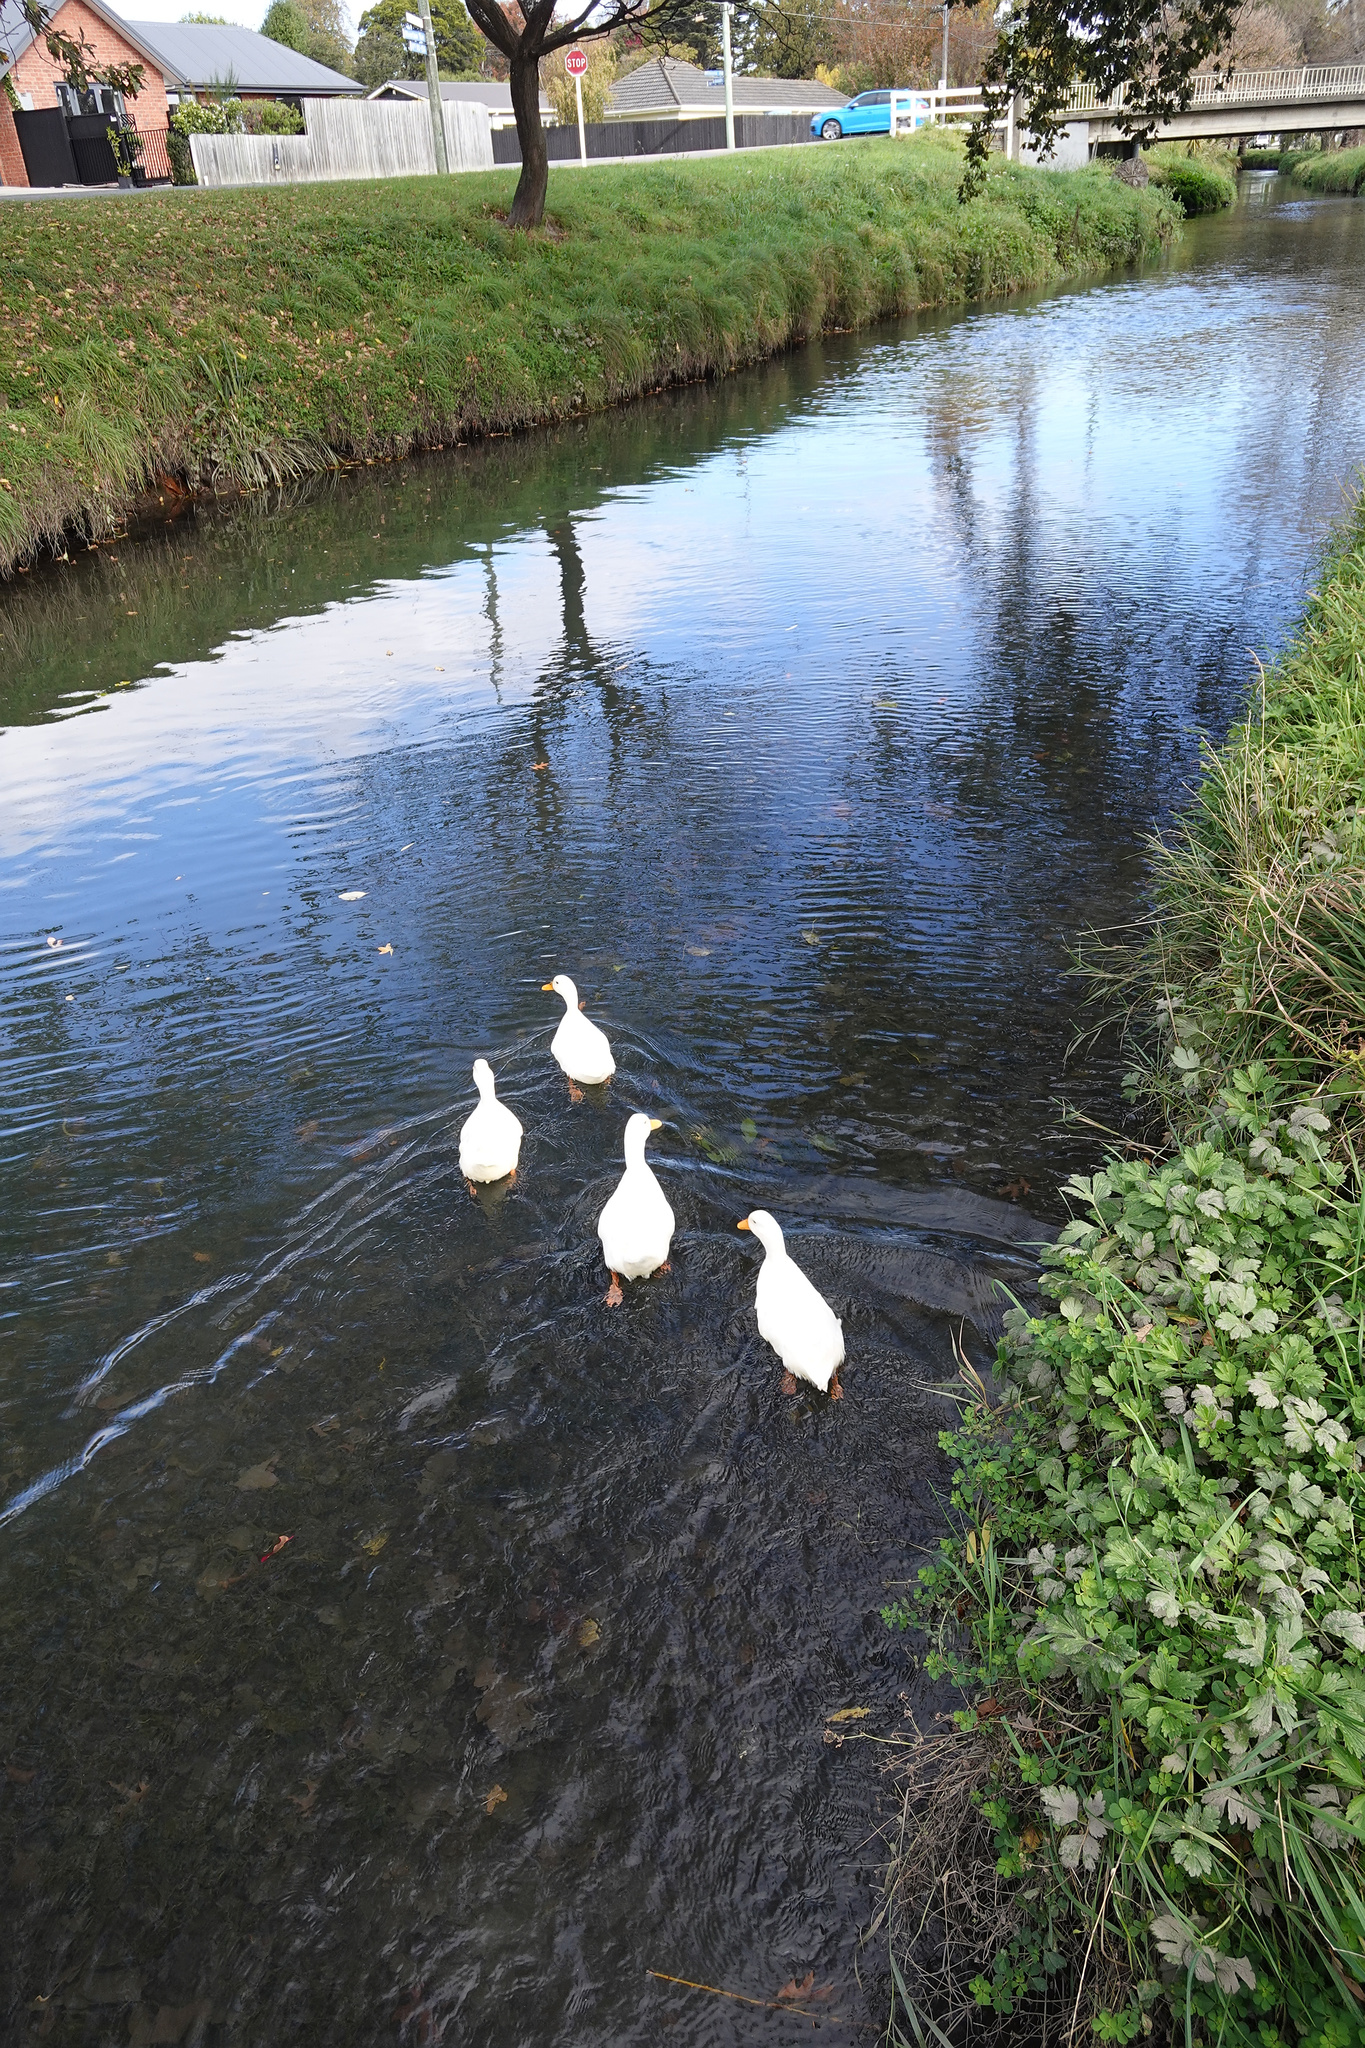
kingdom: Animalia
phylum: Chordata
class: Aves
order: Anseriformes
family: Anatidae
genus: Anas
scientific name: Anas platyrhynchos
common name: Mallard
